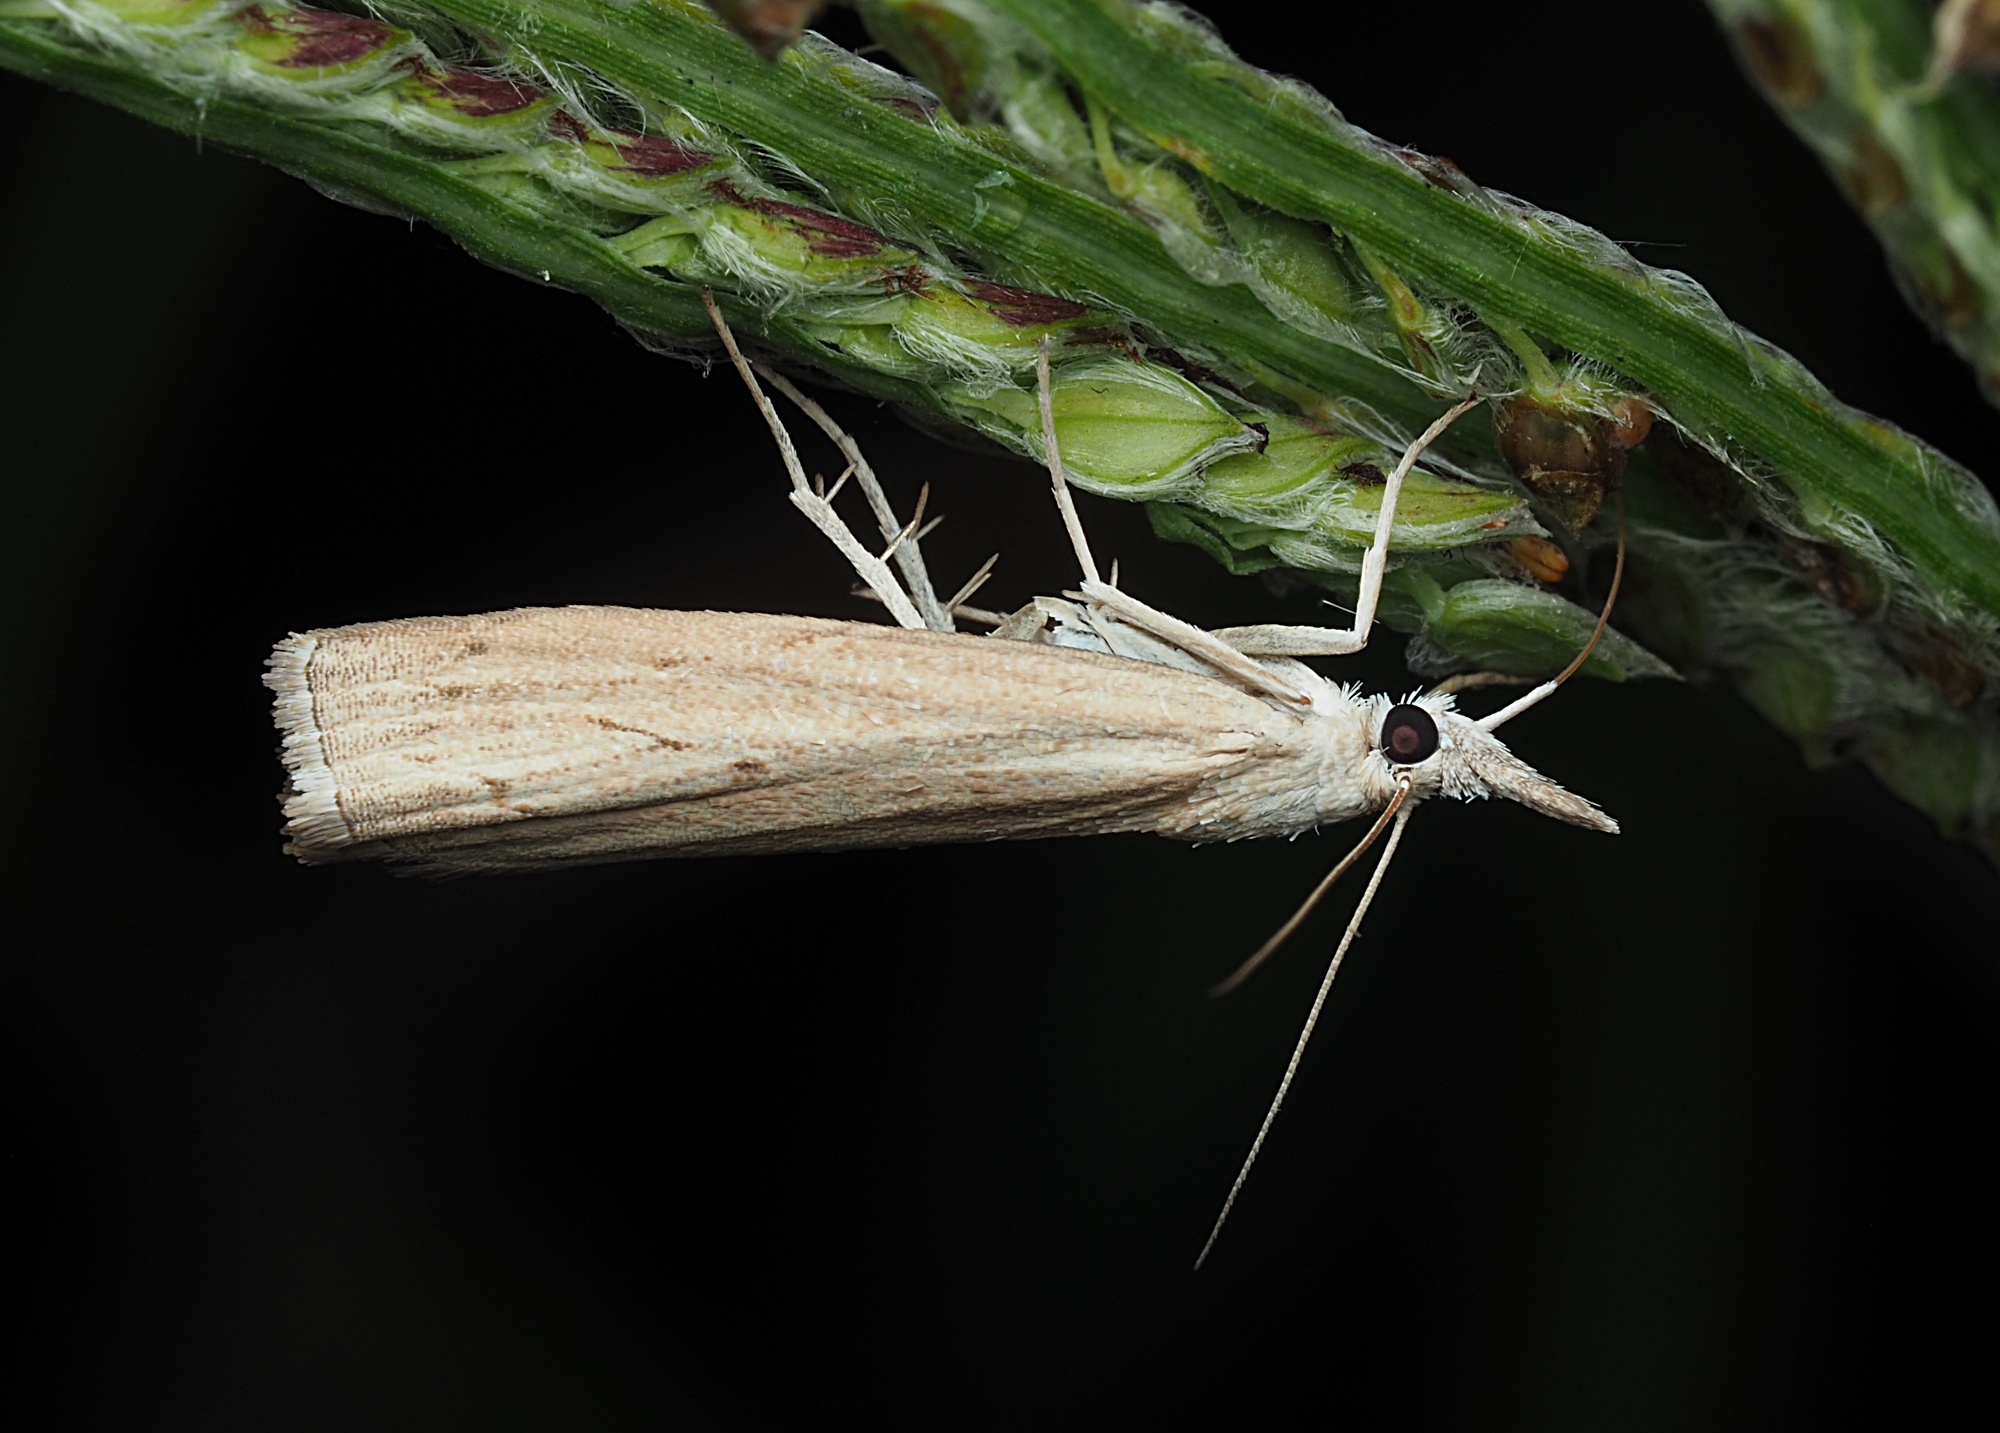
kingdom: Animalia
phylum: Arthropoda
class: Insecta
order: Lepidoptera
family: Crambidae
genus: Culladia
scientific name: Culladia cuneiferellus
